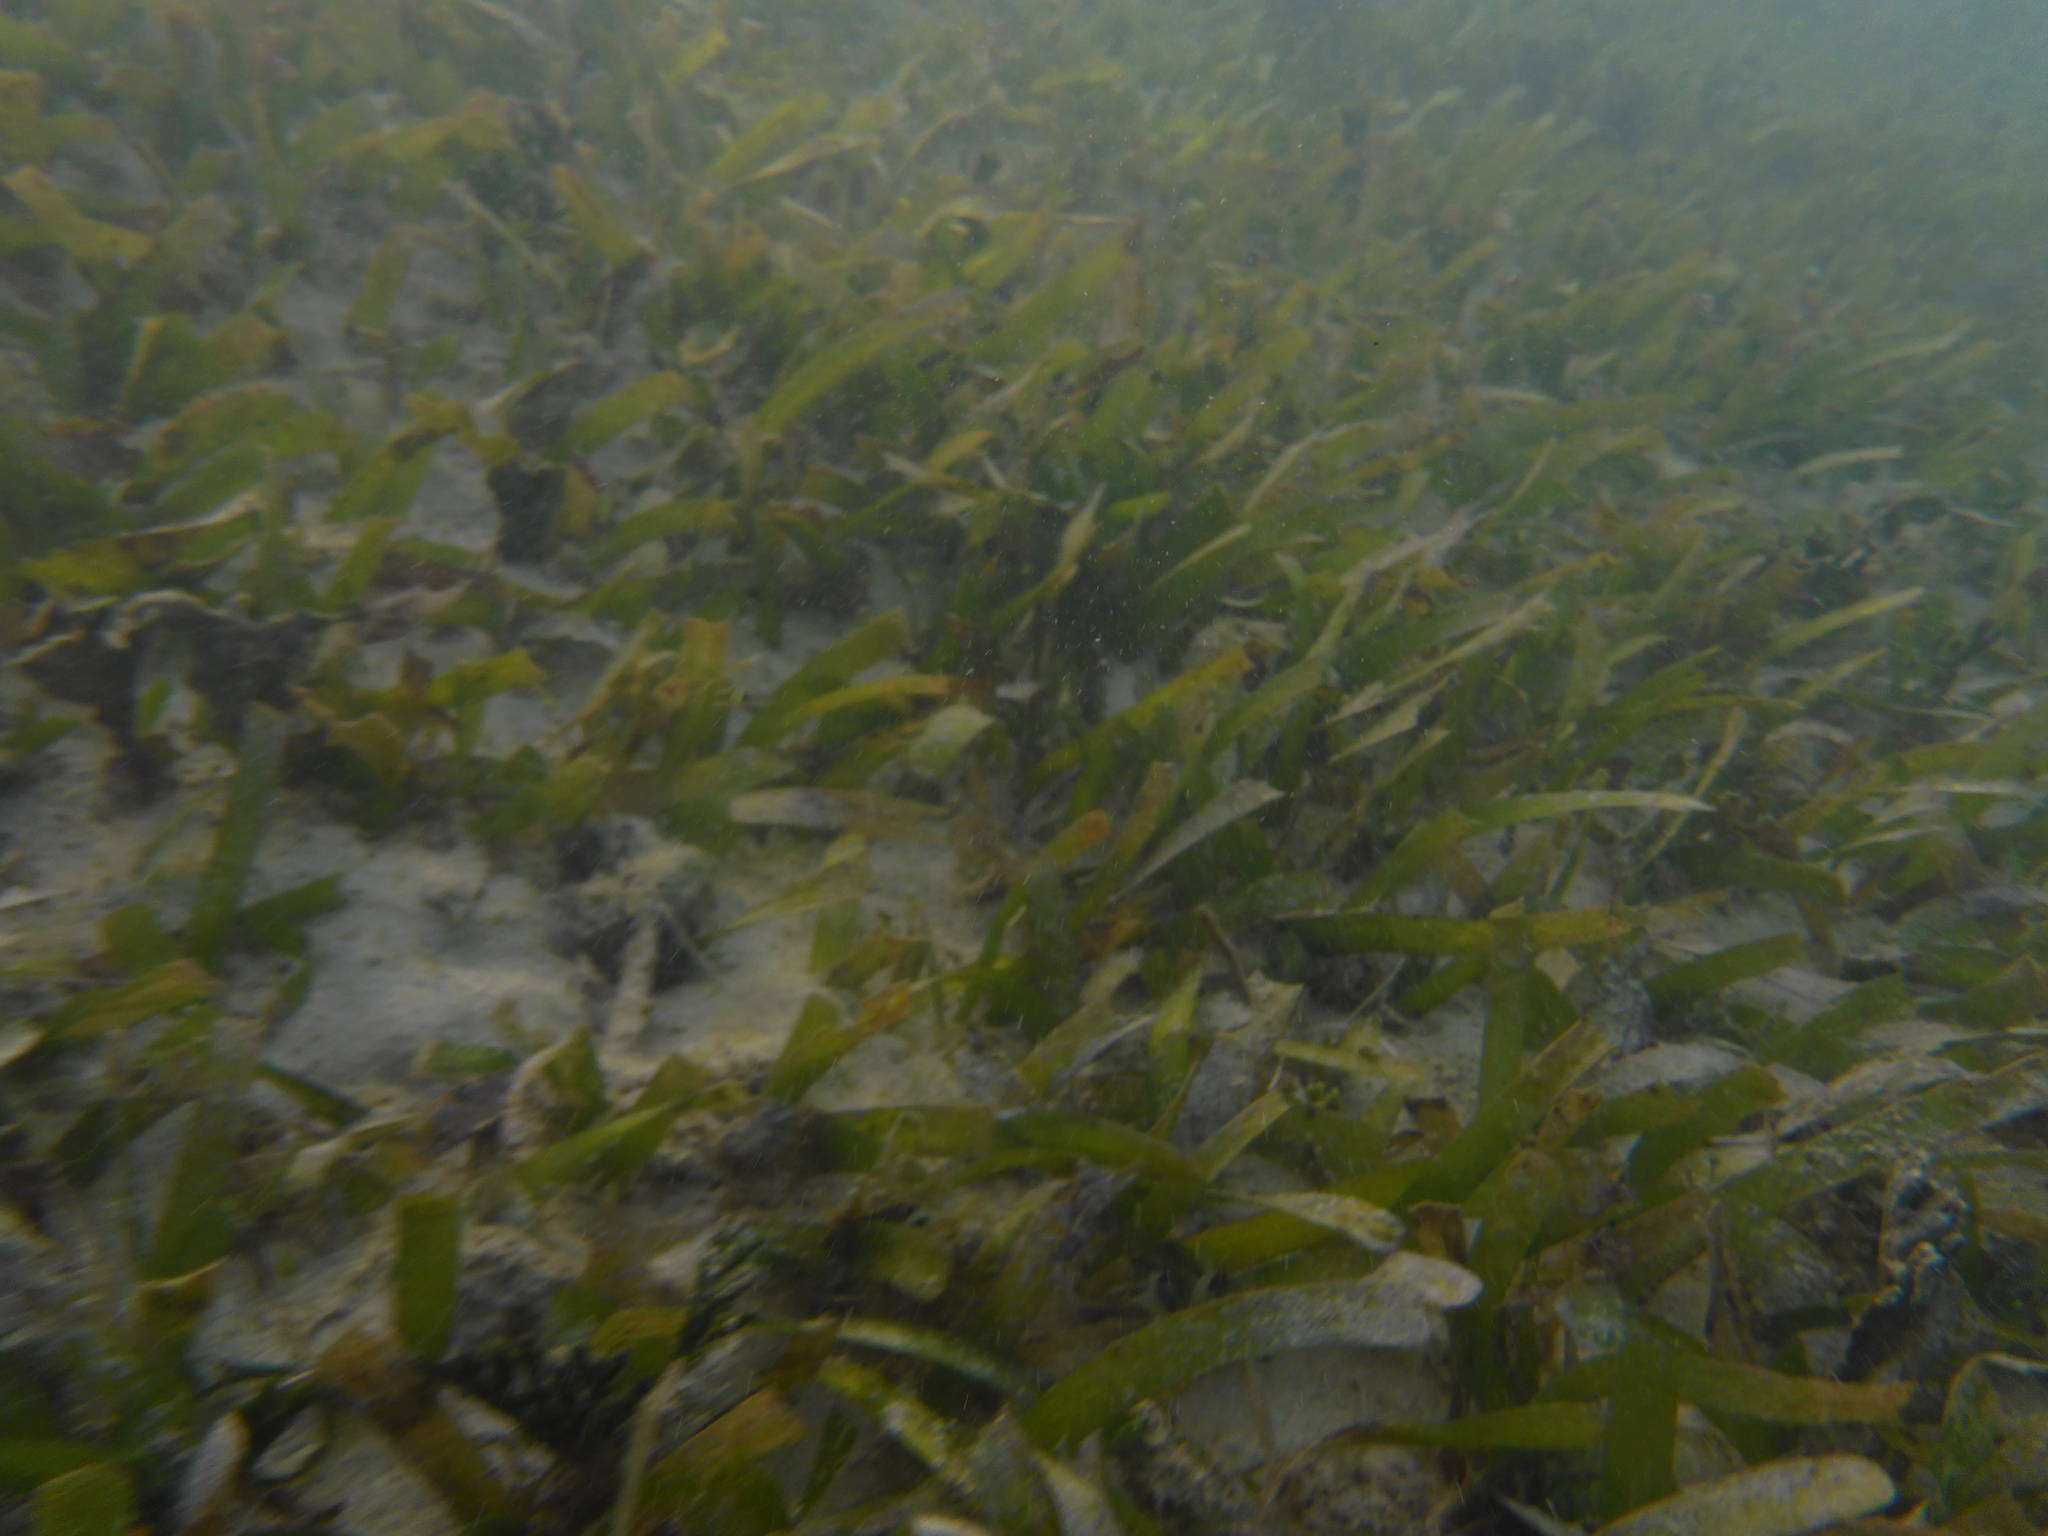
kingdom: Plantae
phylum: Tracheophyta
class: Liliopsida
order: Alismatales
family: Hydrocharitaceae
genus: Thalassia
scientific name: Thalassia testudinum
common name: Species code: tt
